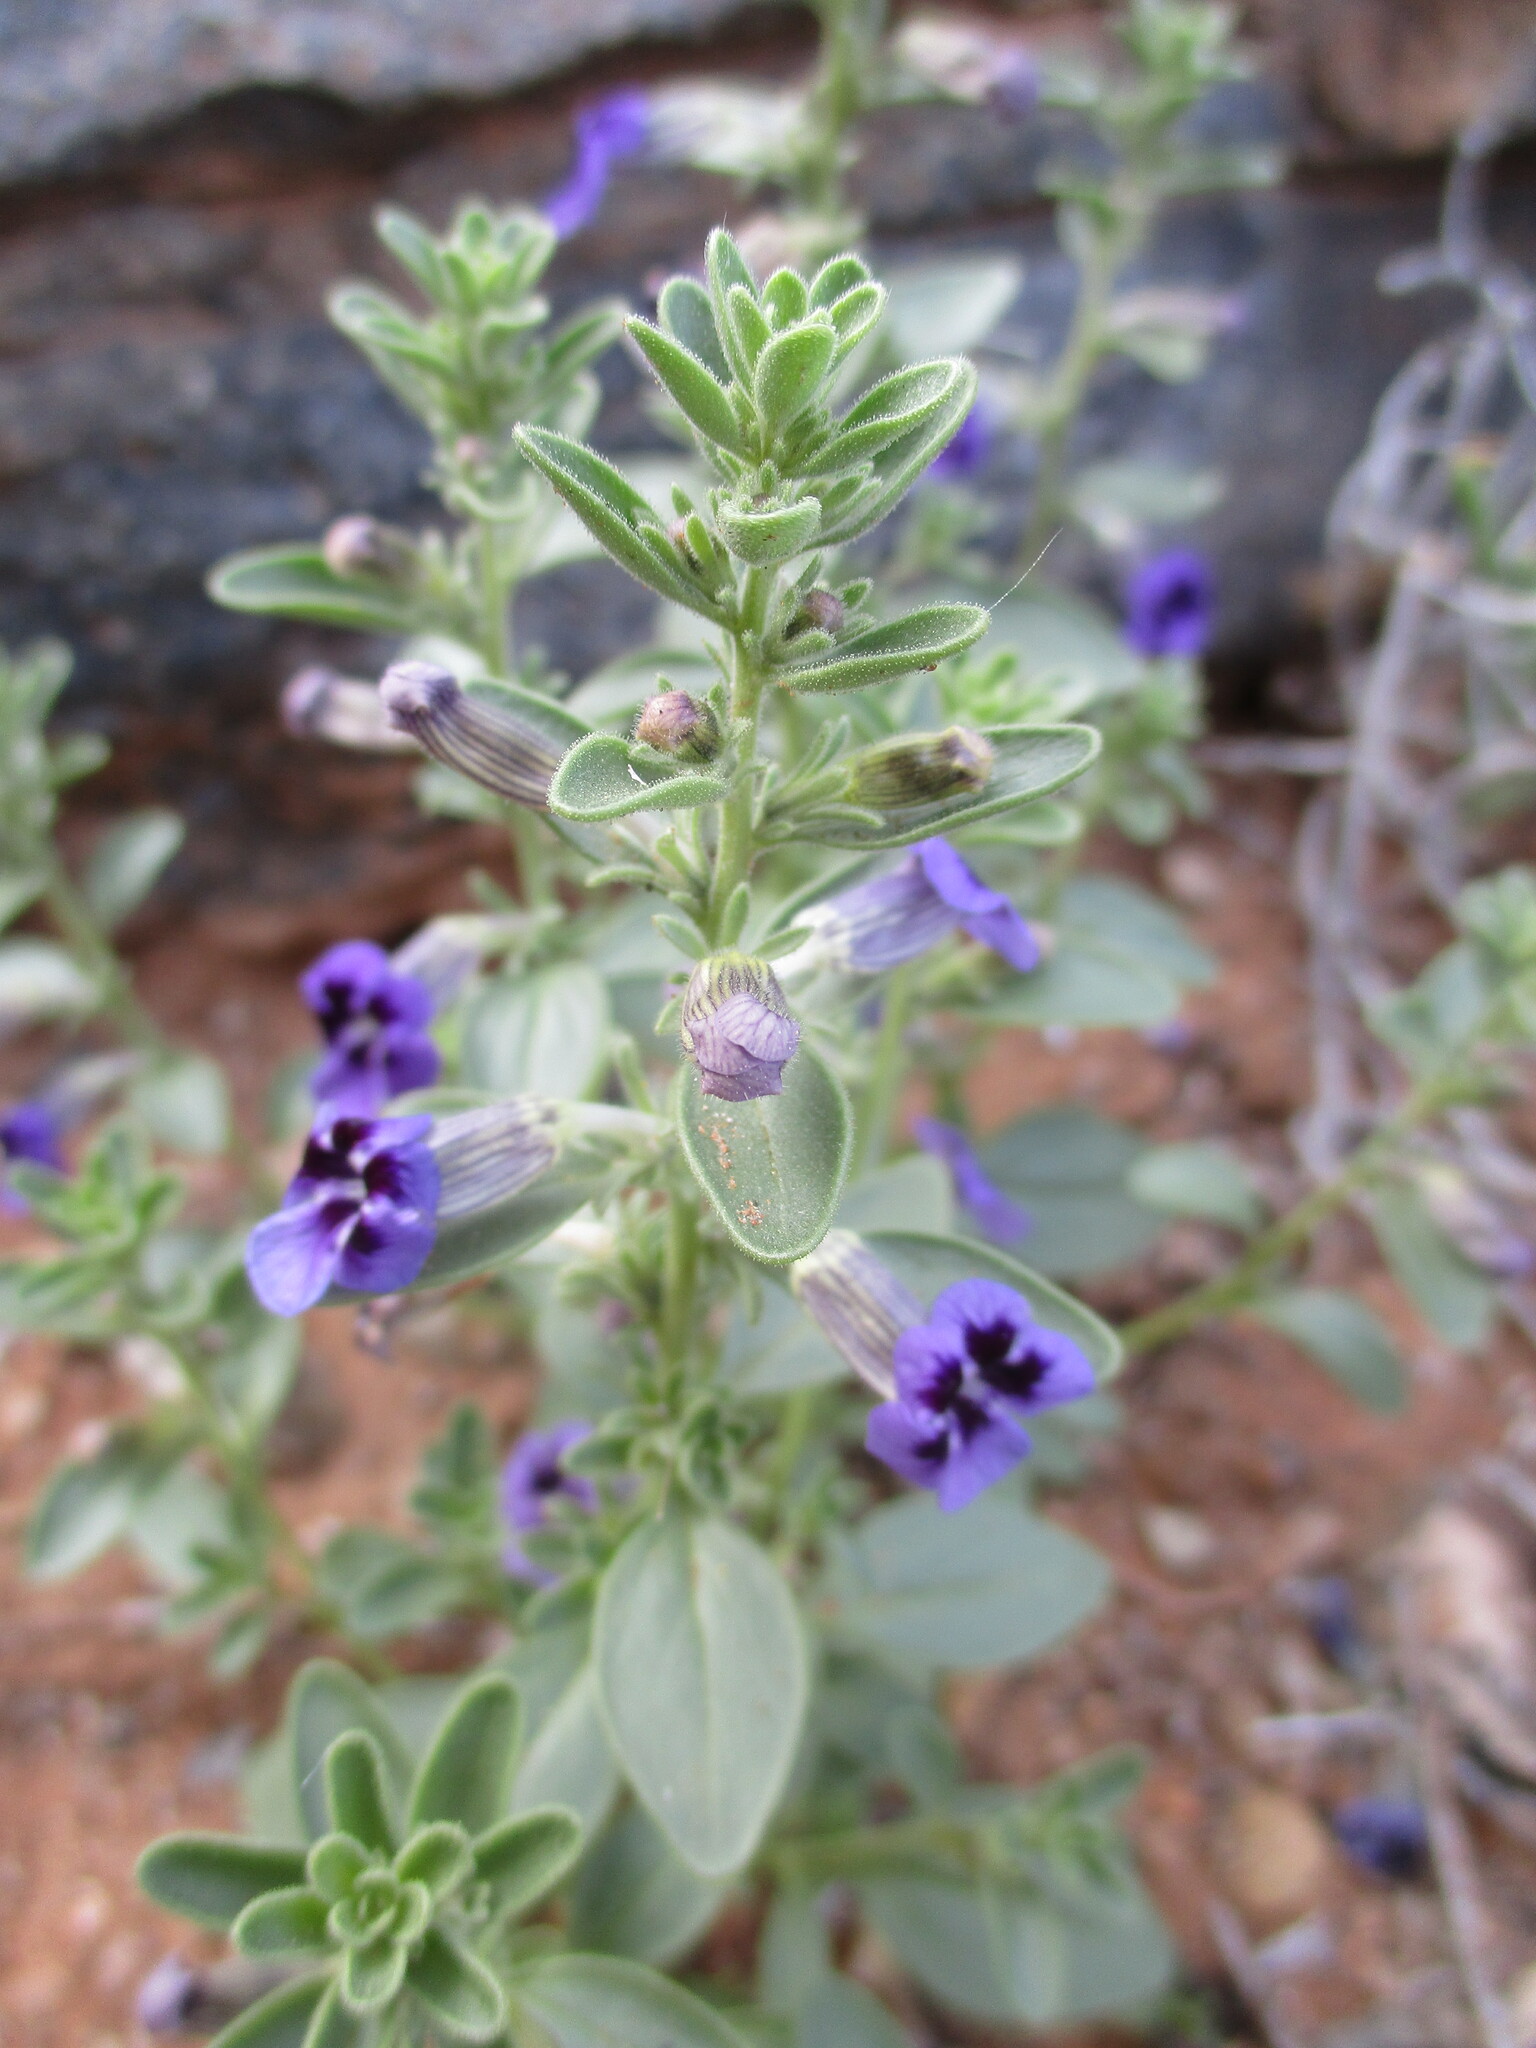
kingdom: Plantae
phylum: Tracheophyta
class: Magnoliopsida
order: Lamiales
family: Scrophulariaceae
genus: Peliostomum
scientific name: Peliostomum viscosum
